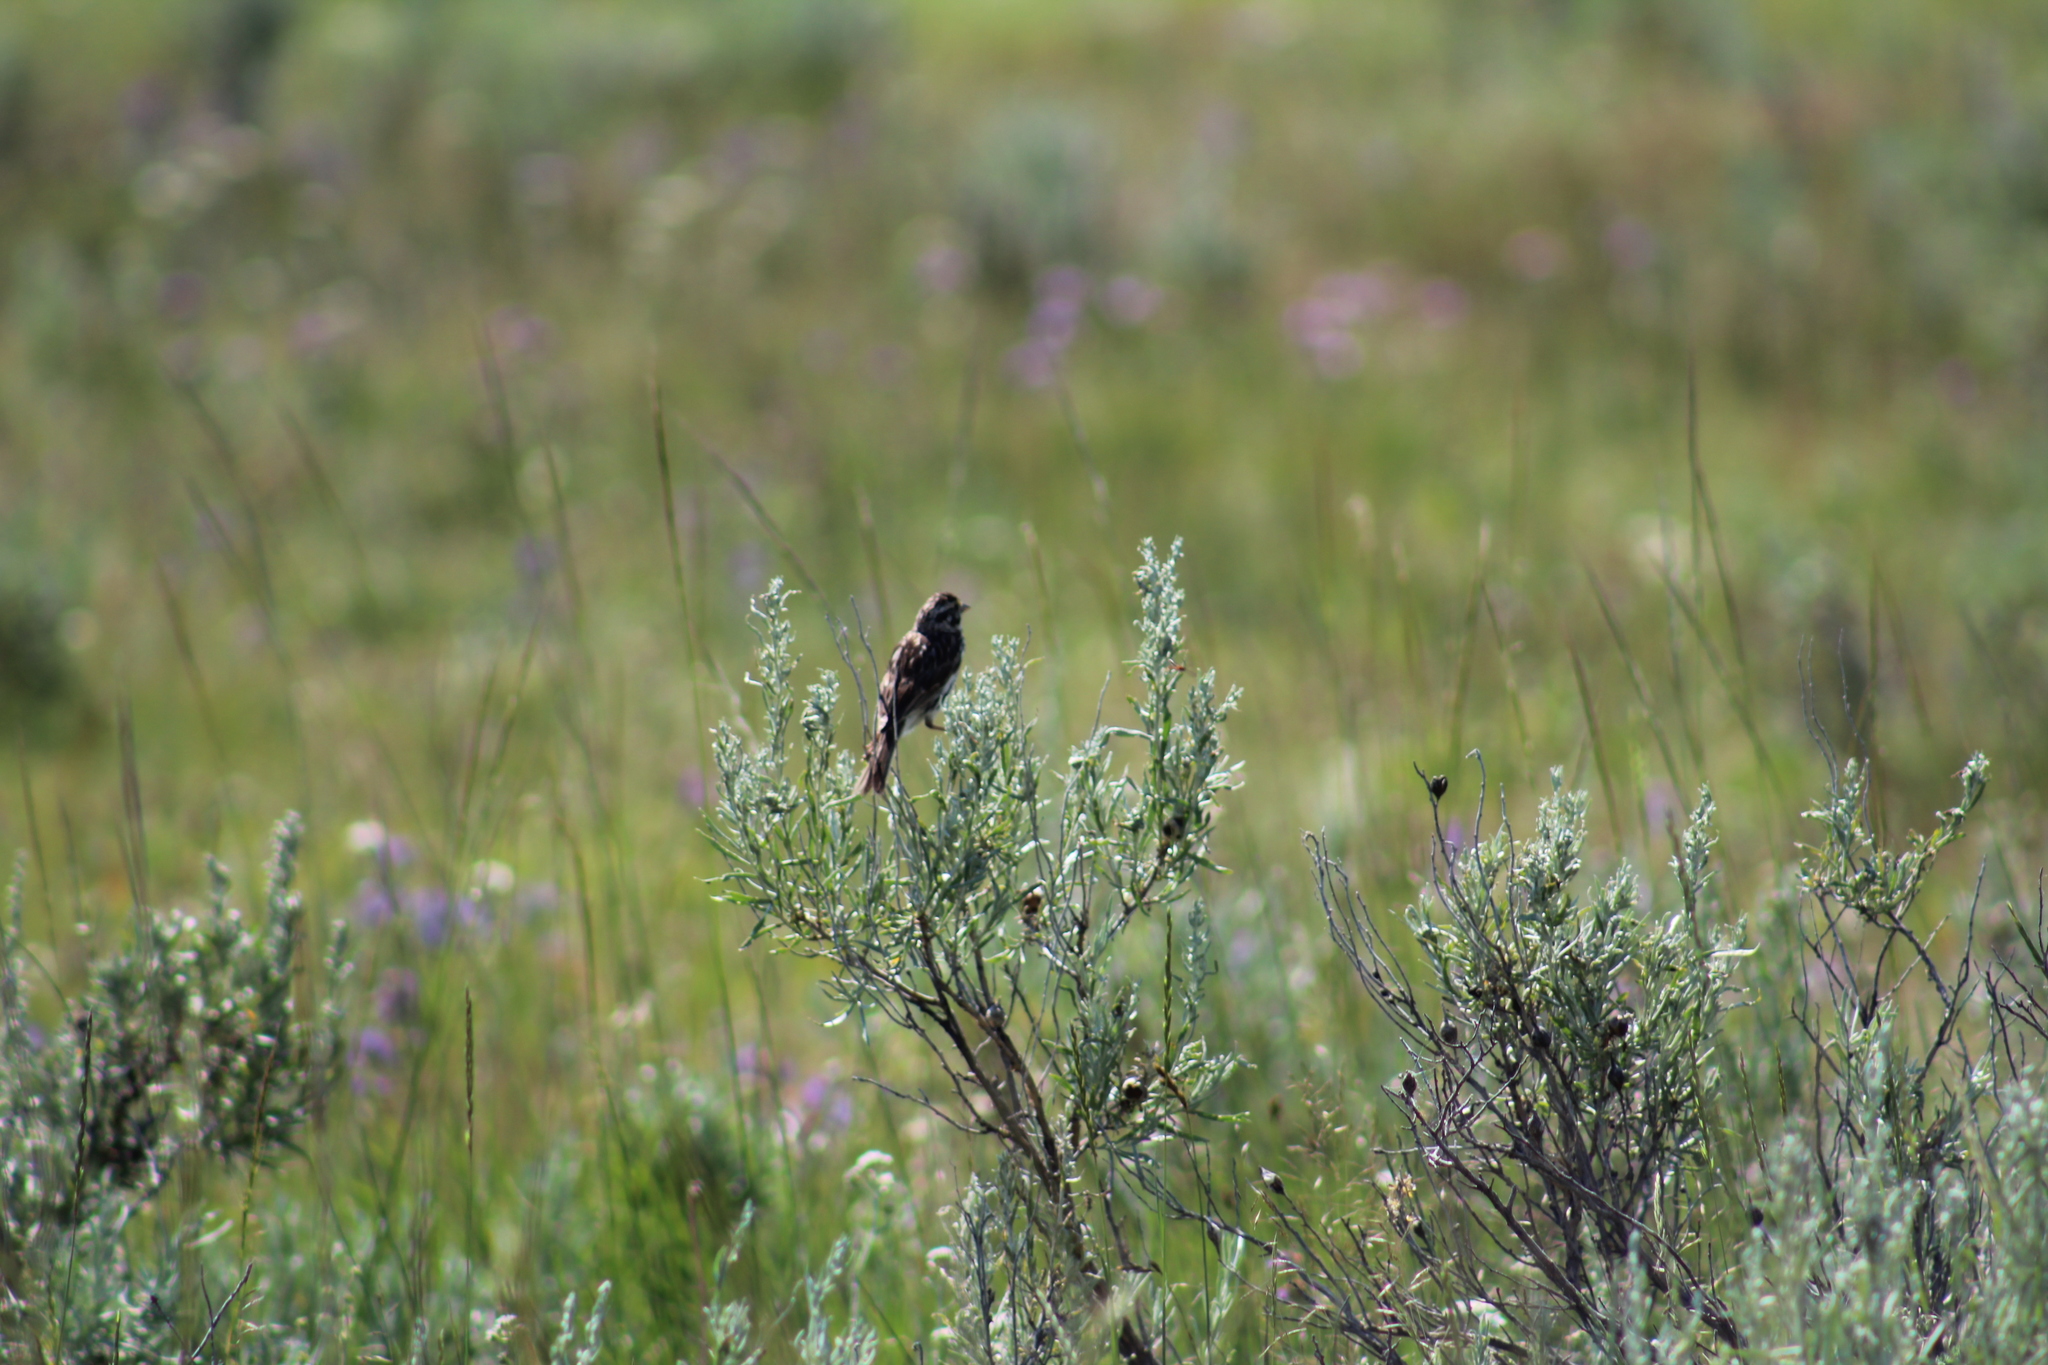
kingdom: Animalia
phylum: Chordata
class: Aves
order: Passeriformes
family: Passerellidae
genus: Passerculus
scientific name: Passerculus sandwichensis
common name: Savannah sparrow
